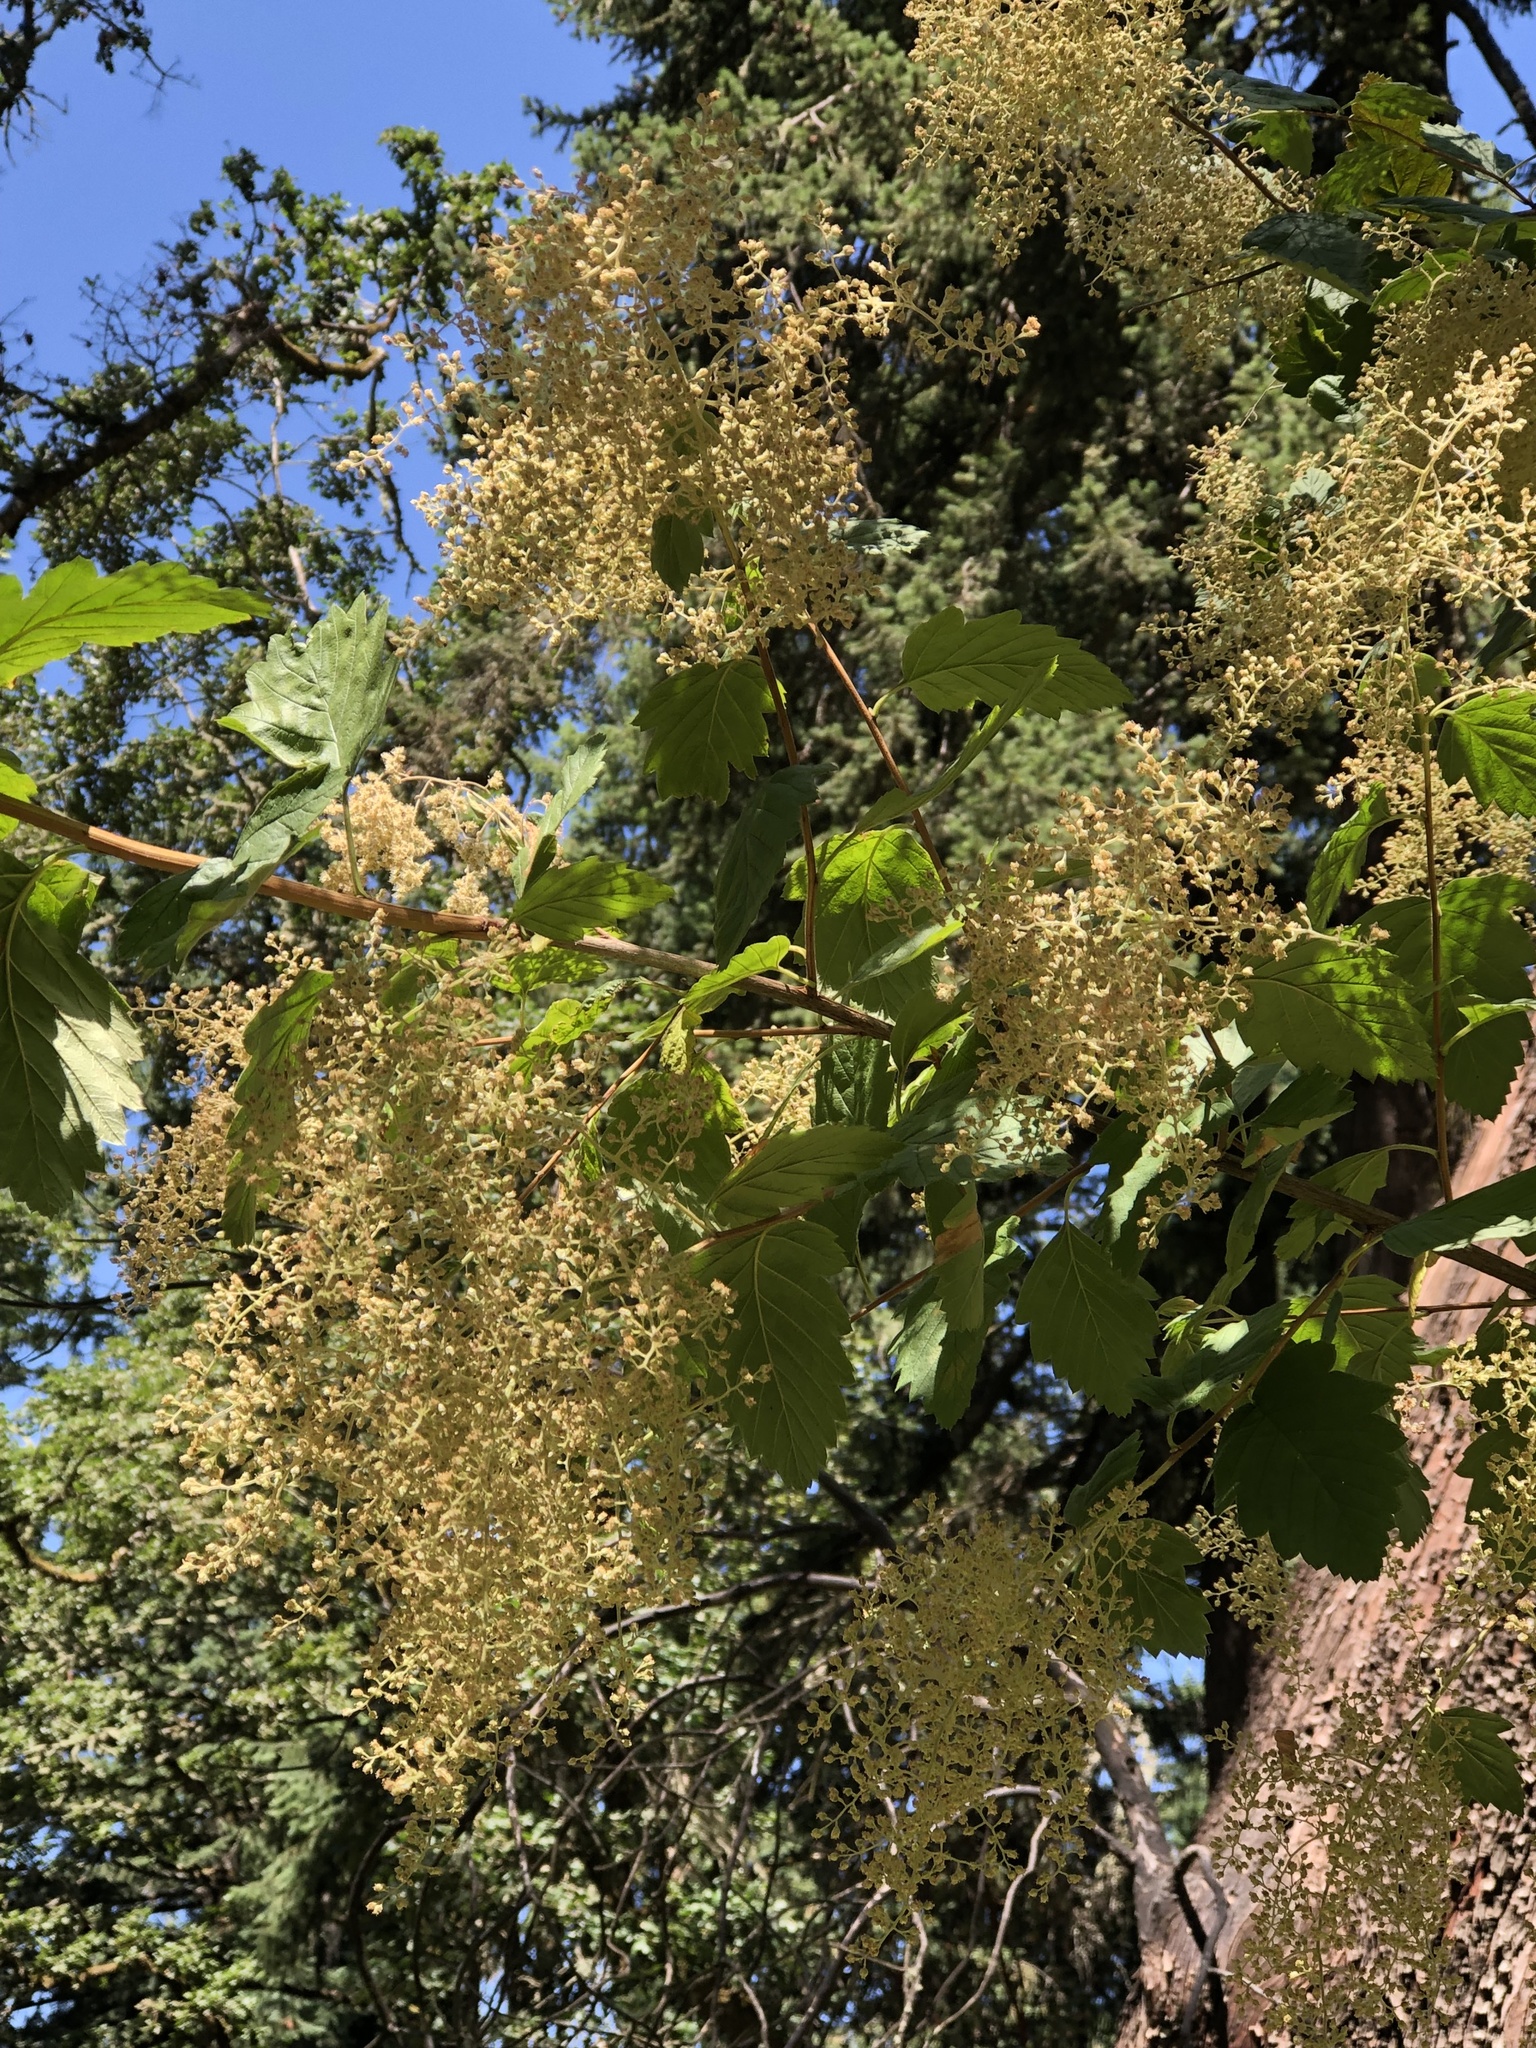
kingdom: Plantae
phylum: Tracheophyta
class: Magnoliopsida
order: Rosales
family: Rosaceae
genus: Holodiscus
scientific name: Holodiscus discolor
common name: Oceanspray
